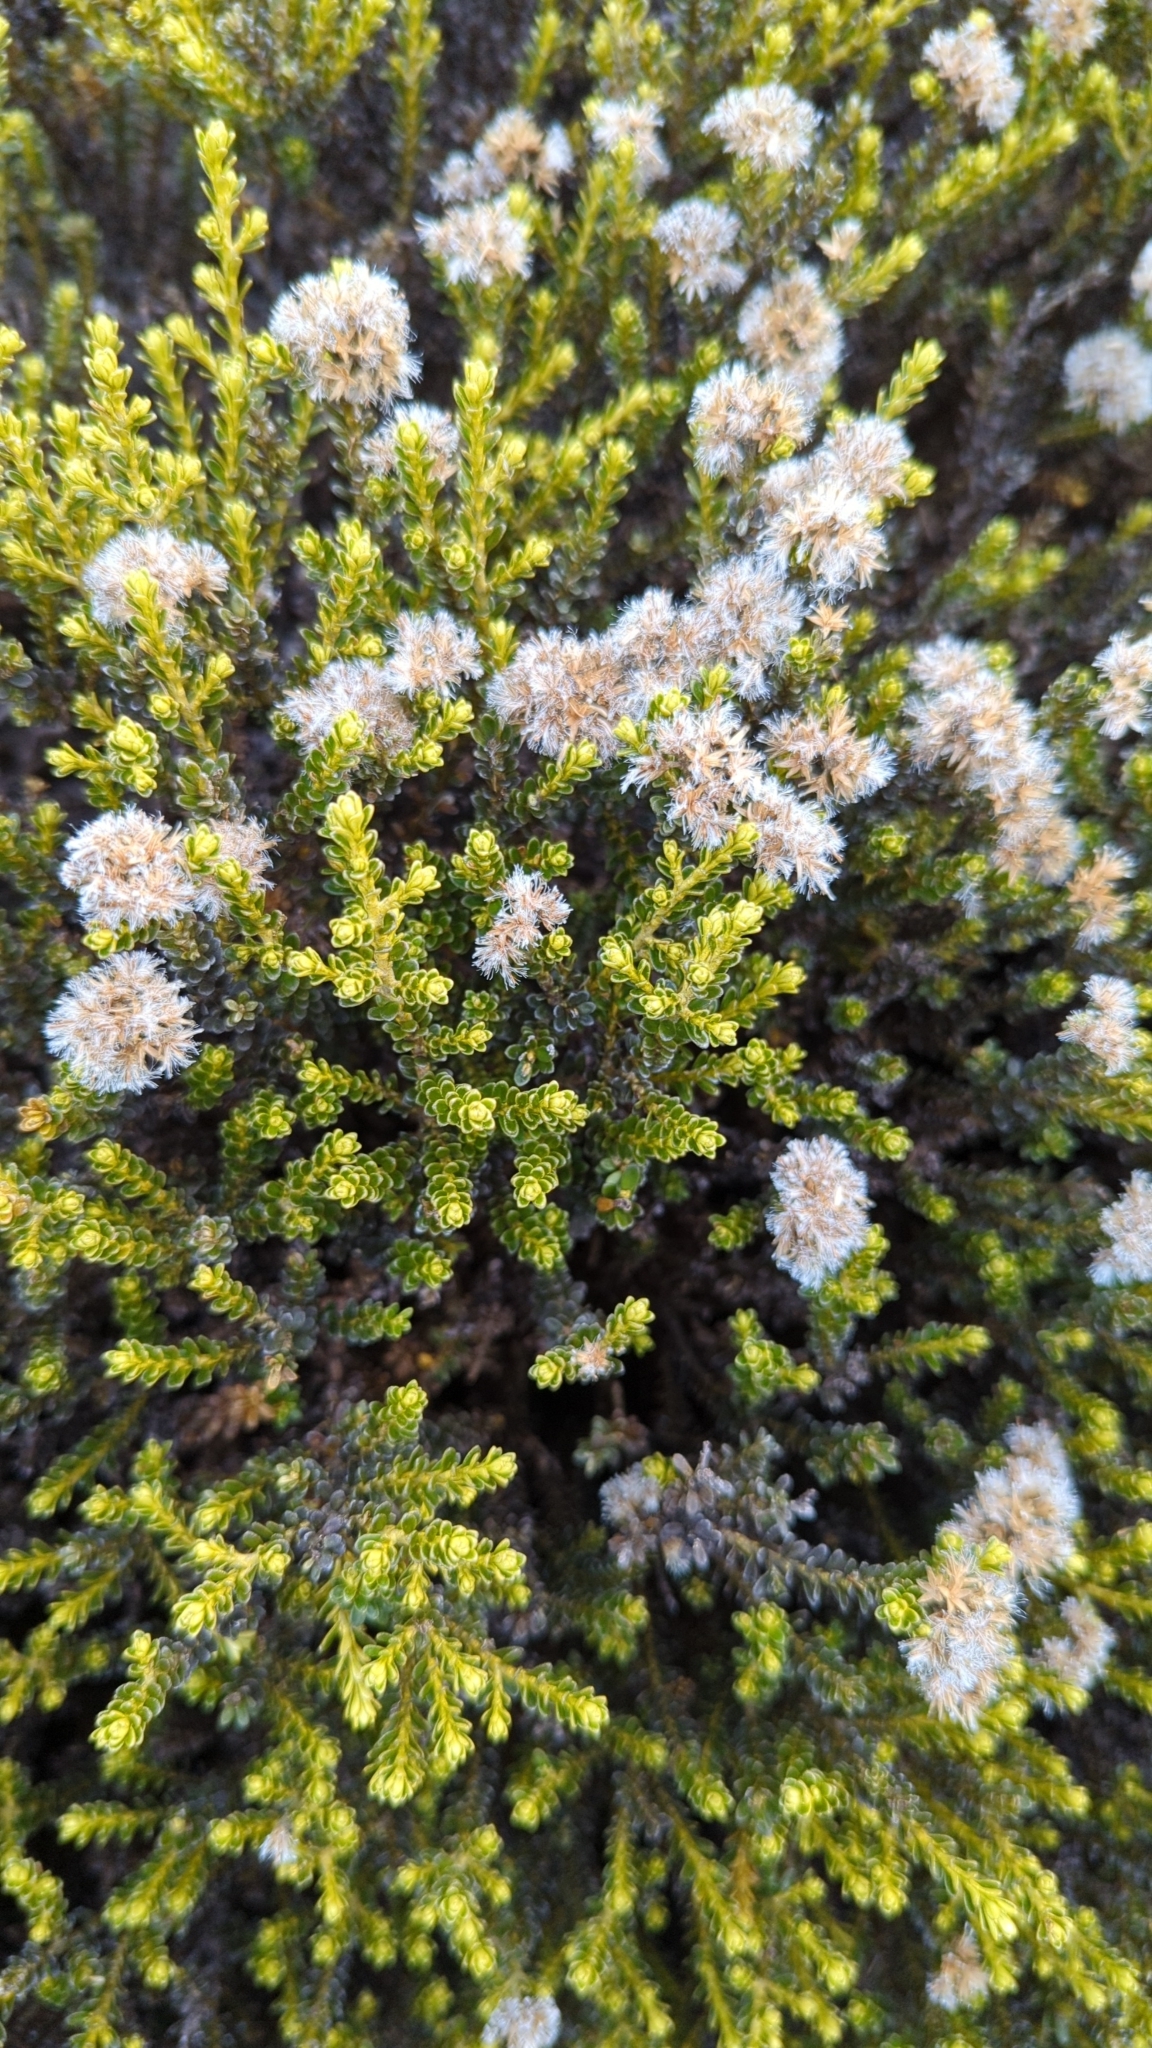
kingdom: Plantae
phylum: Tracheophyta
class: Magnoliopsida
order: Asterales
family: Asteraceae
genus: Ozothamnus
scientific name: Ozothamnus leptophyllus
